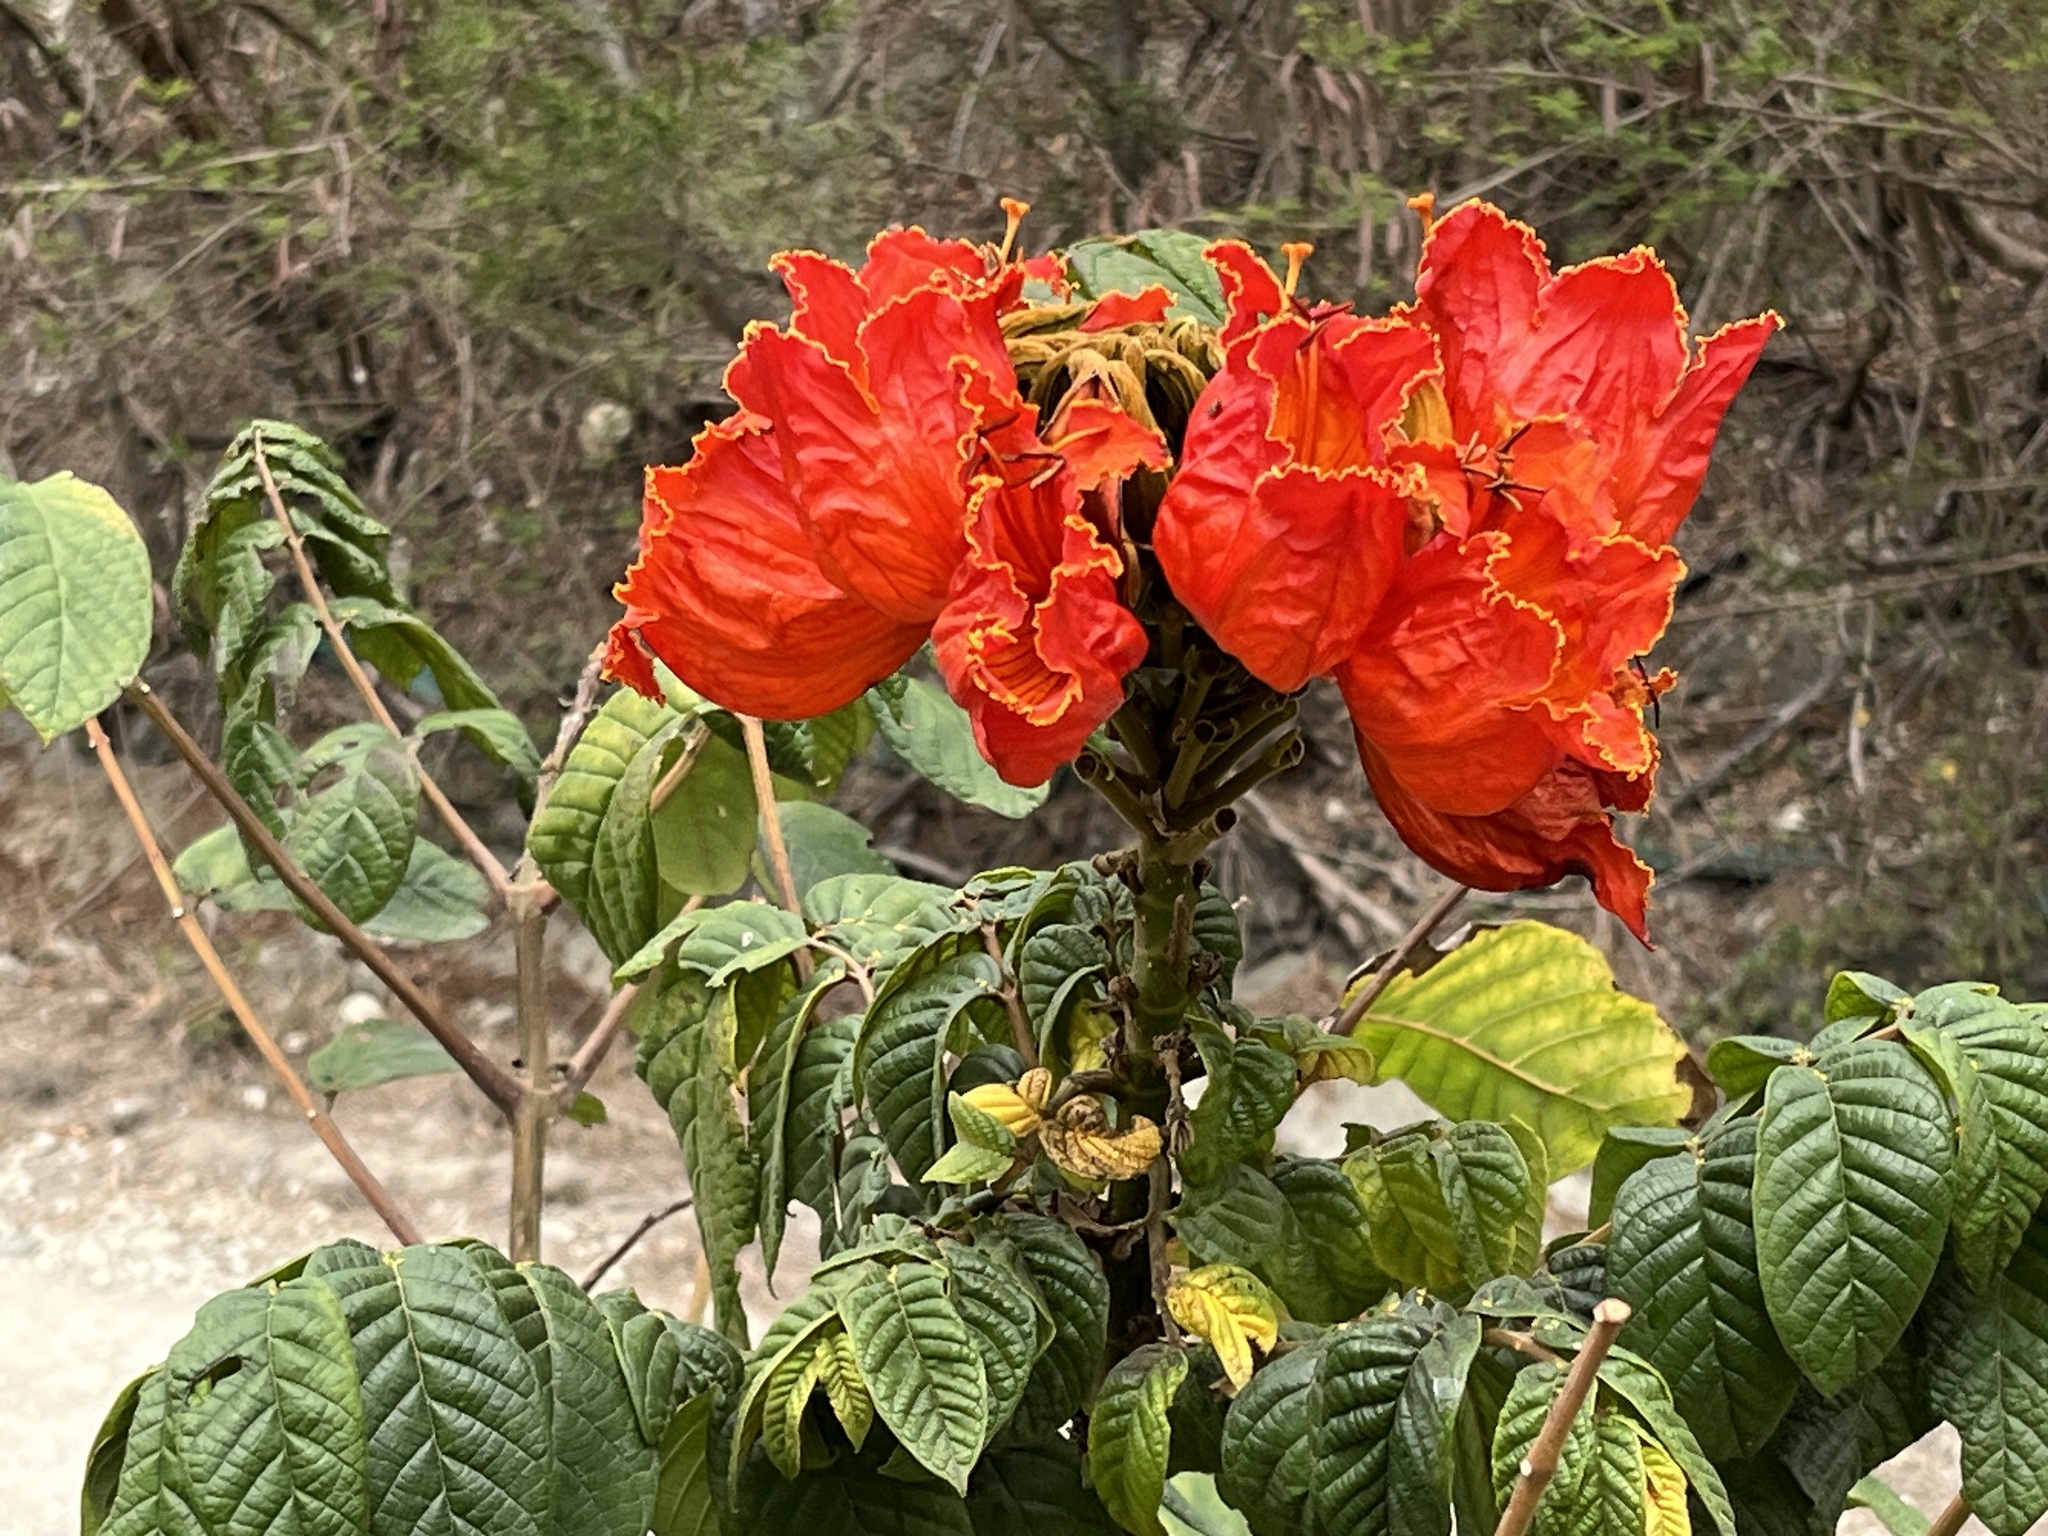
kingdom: Plantae
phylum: Tracheophyta
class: Magnoliopsida
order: Lamiales
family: Bignoniaceae
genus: Spathodea
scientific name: Spathodea campanulata
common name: African tuliptree
